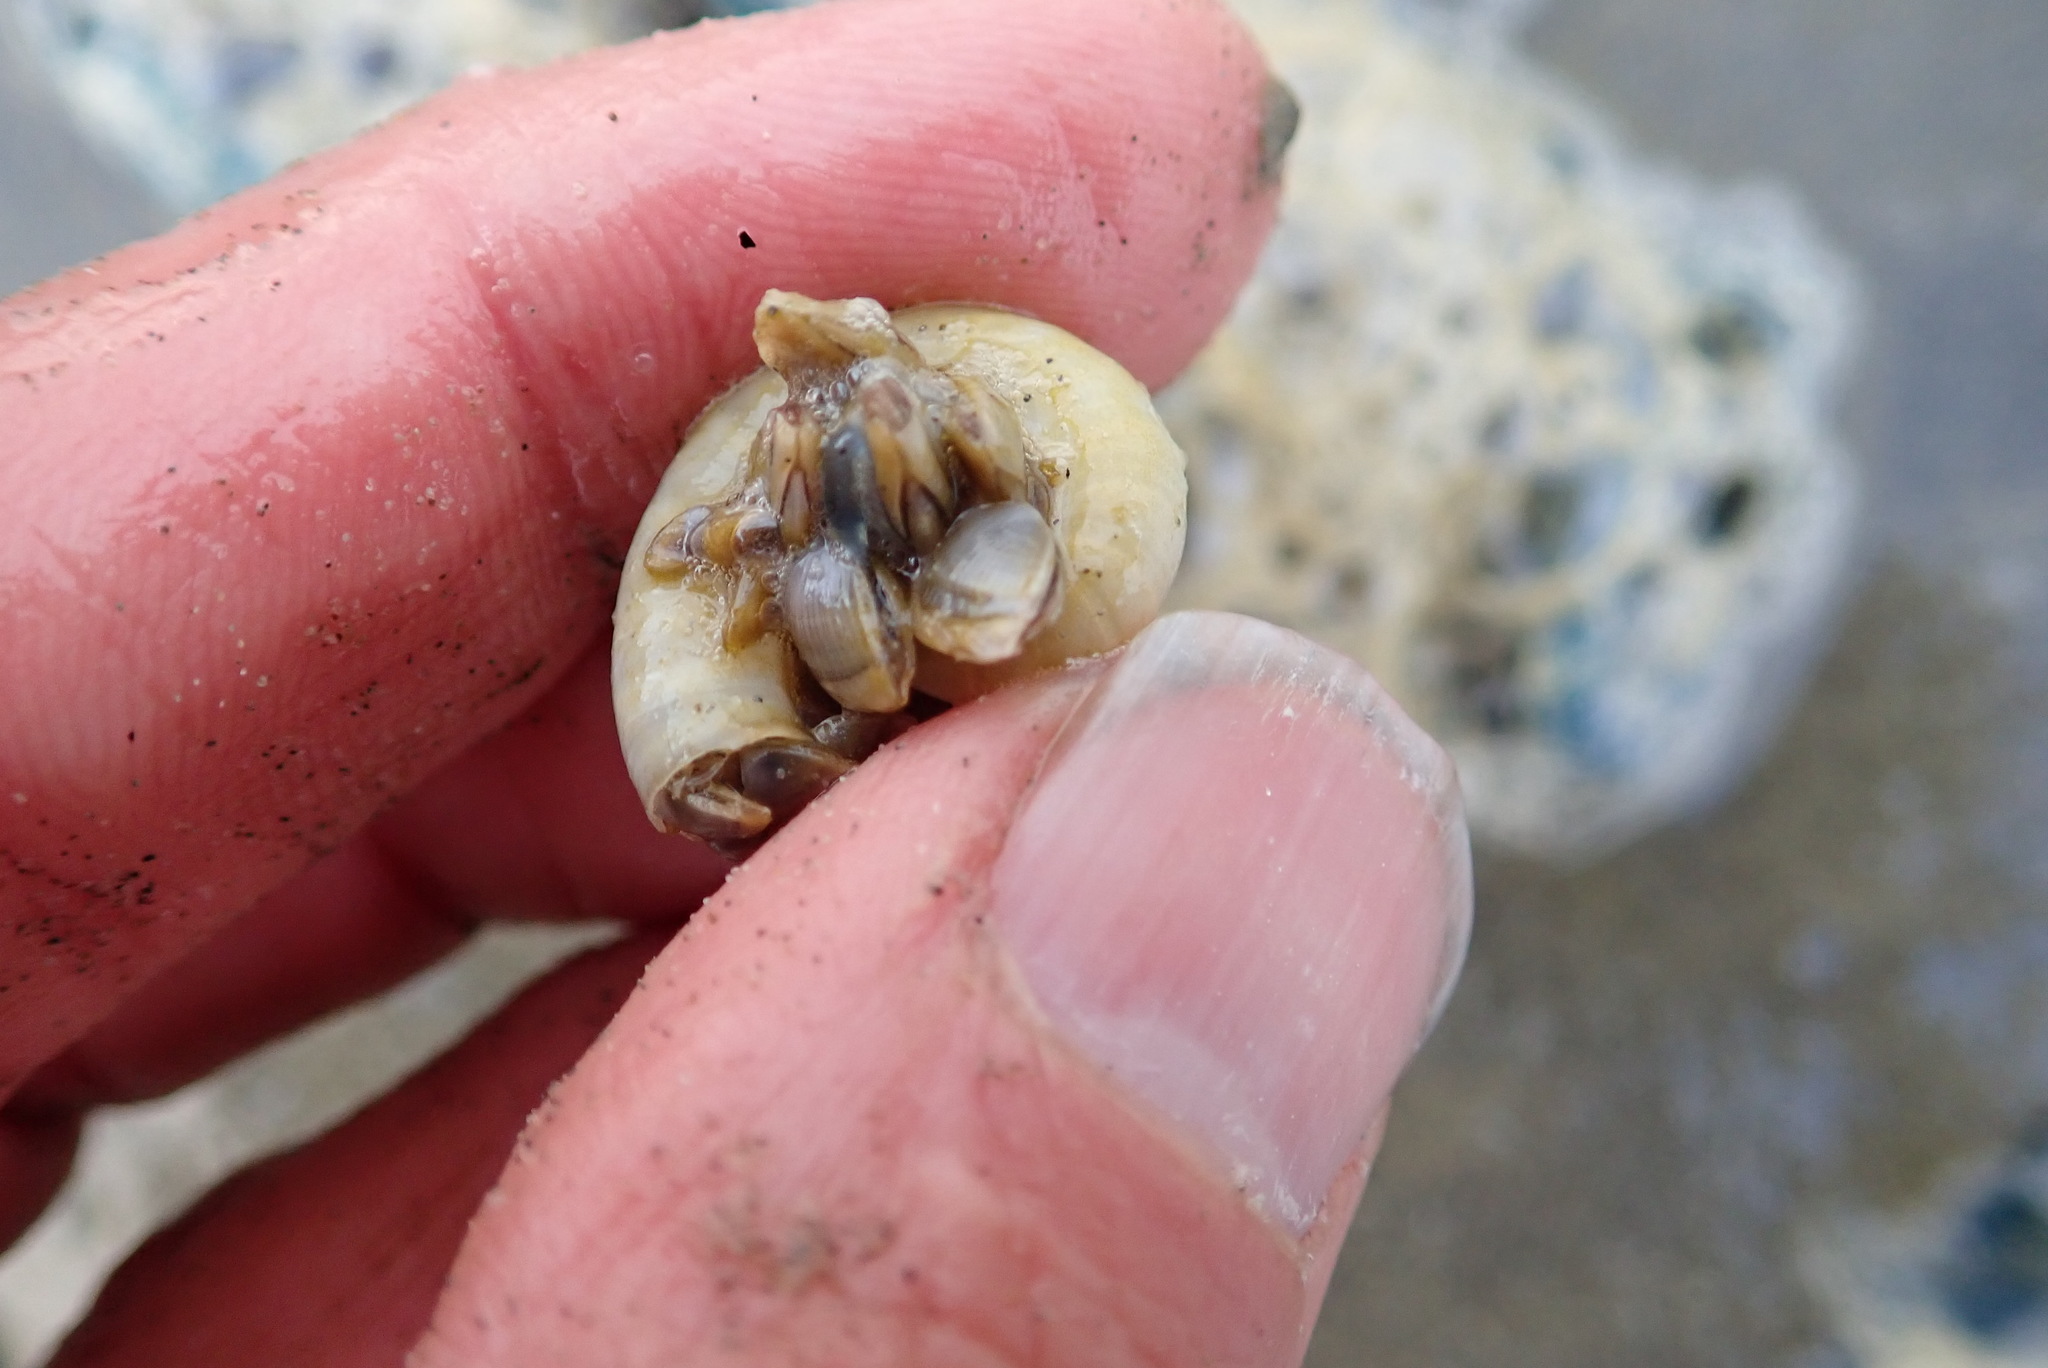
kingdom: Animalia
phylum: Arthropoda
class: Maxillopoda
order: Pedunculata
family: Lepadidae
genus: Lepas
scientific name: Lepas pectinata
